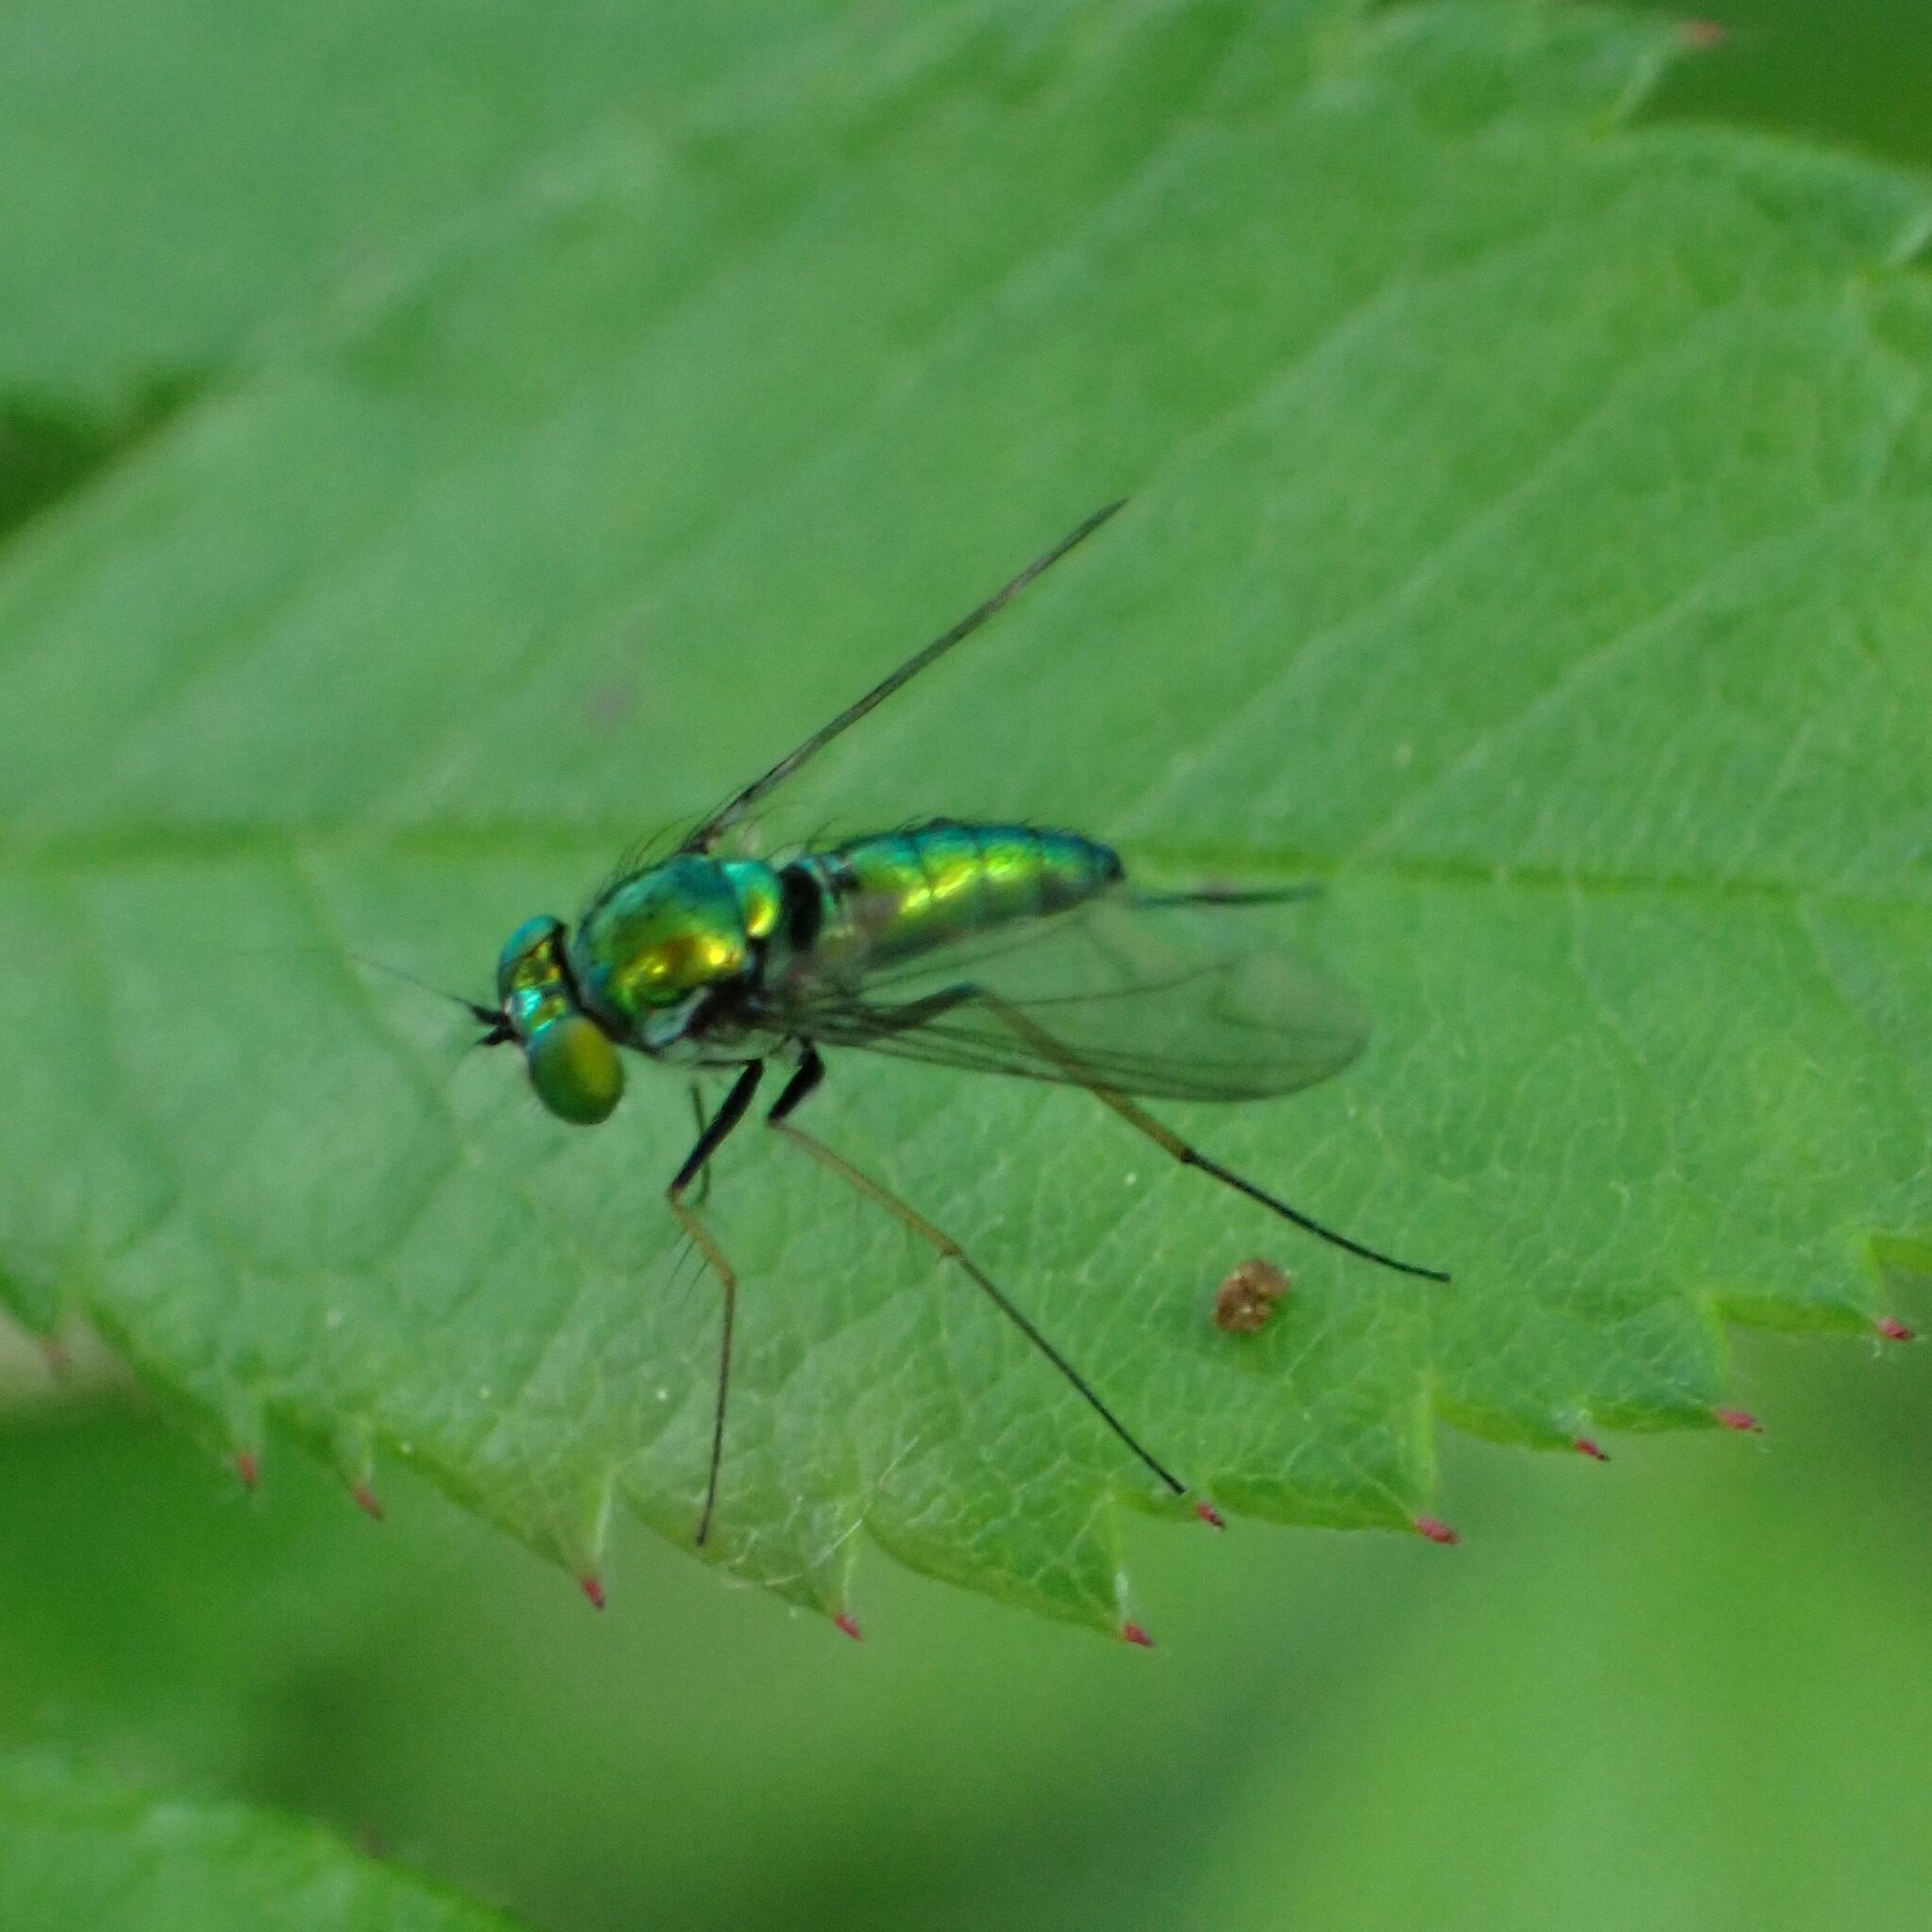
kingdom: Animalia
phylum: Arthropoda
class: Insecta
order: Diptera
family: Dolichopodidae
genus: Condylostylus
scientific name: Condylostylus
